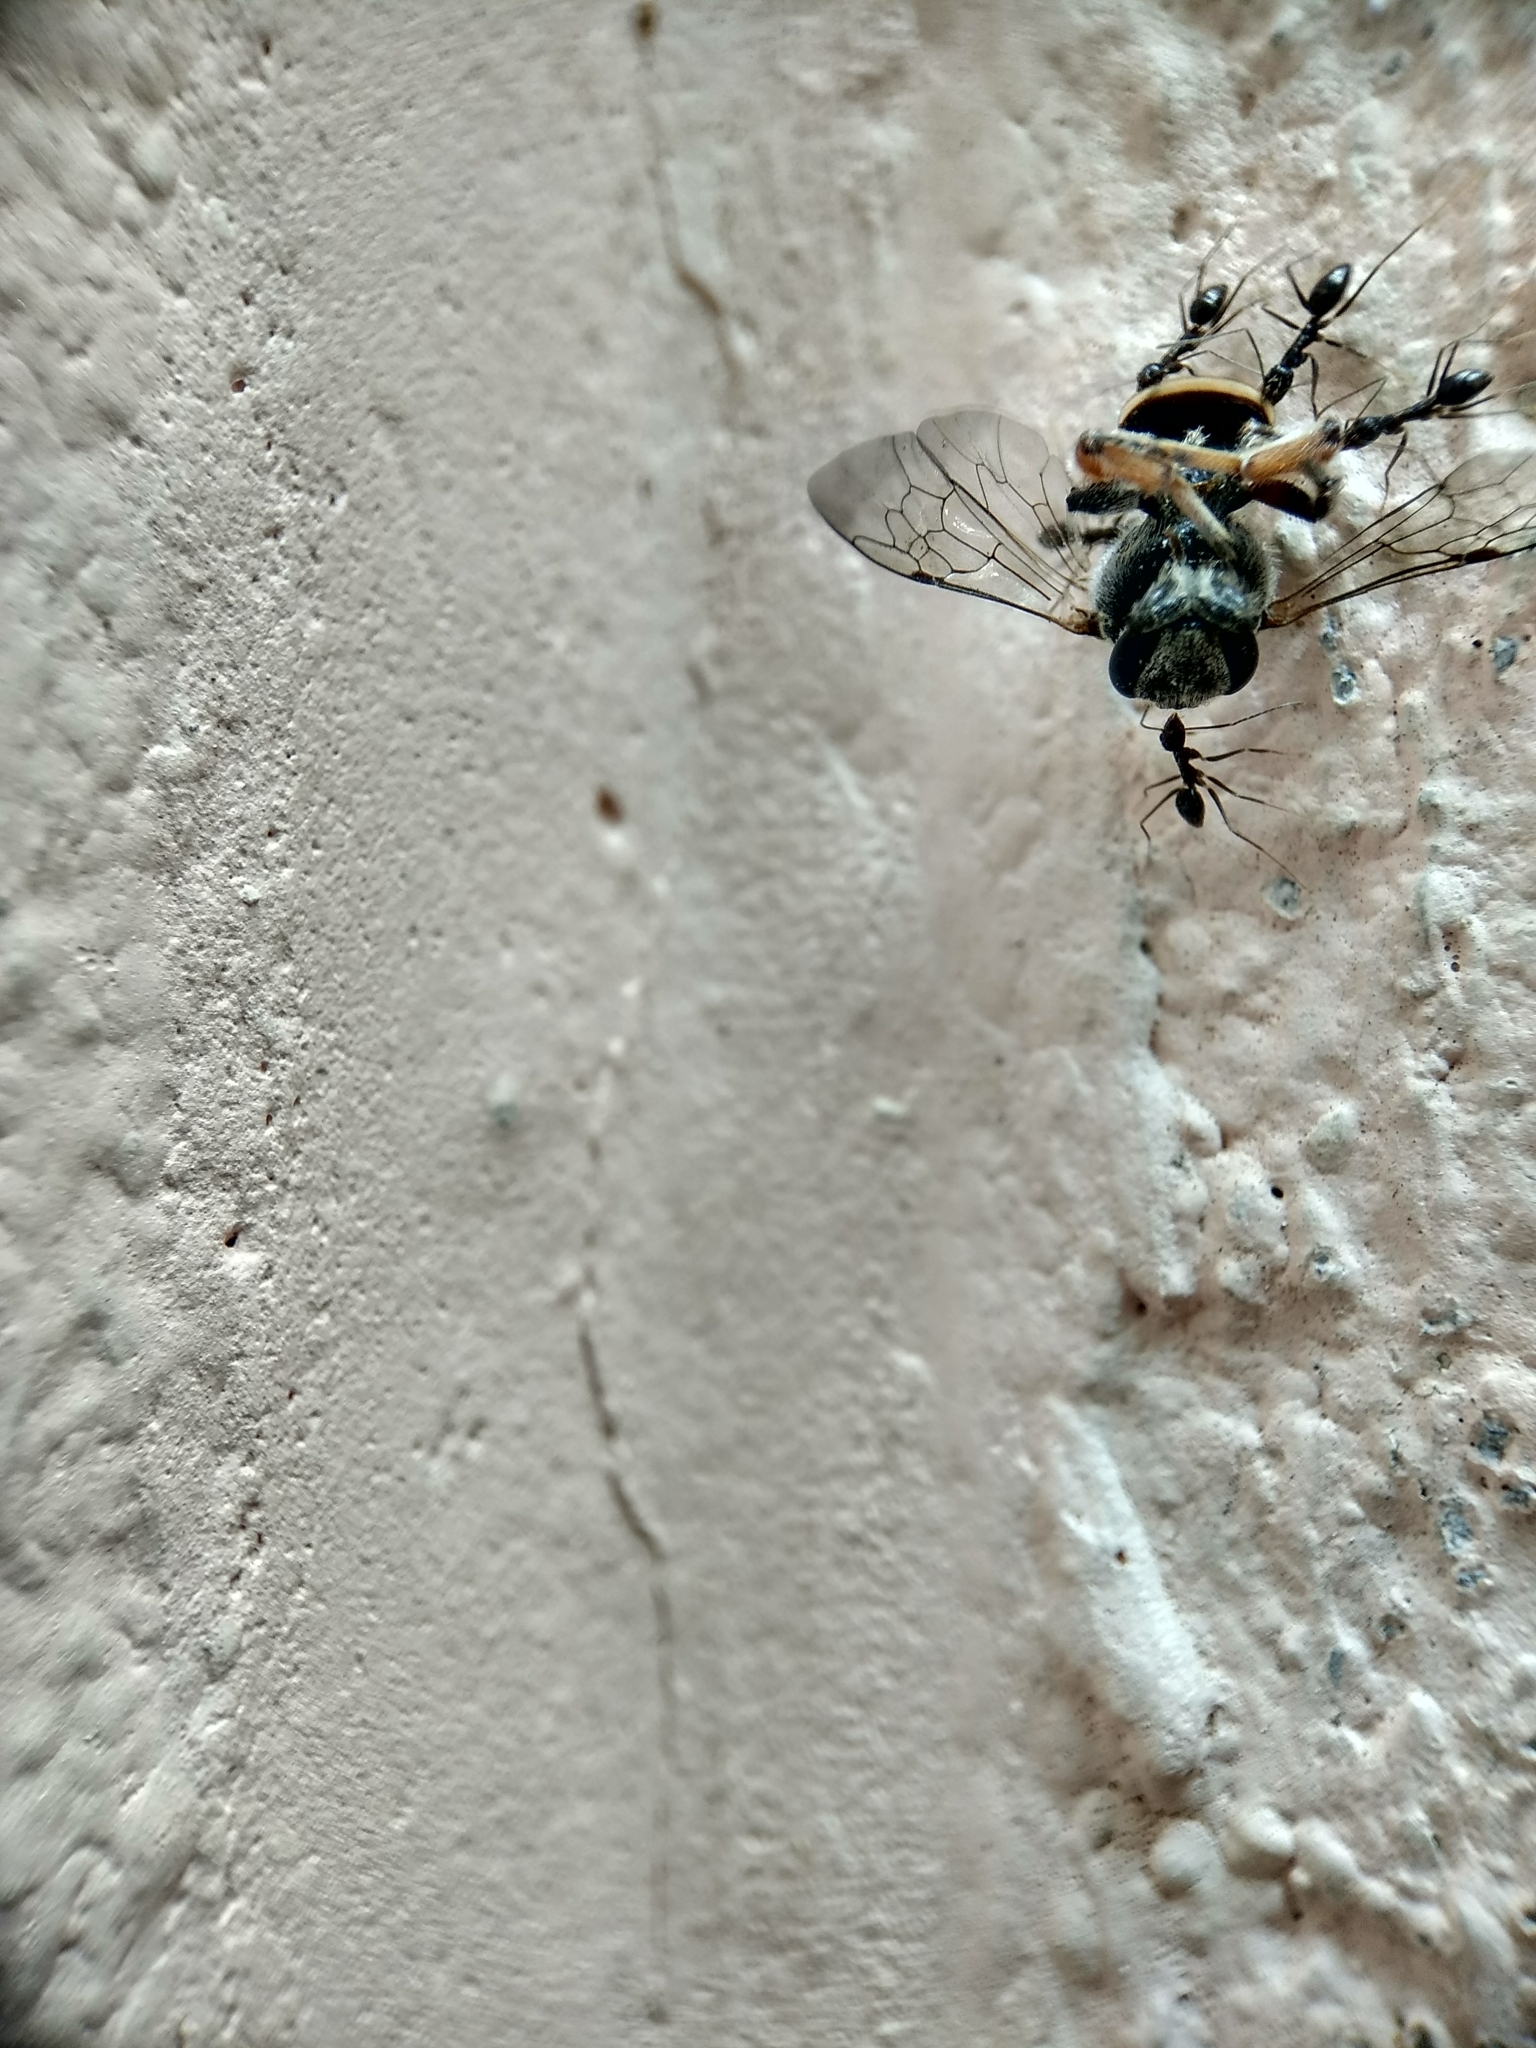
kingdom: Animalia
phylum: Arthropoda
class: Insecta
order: Hymenoptera
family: Formicidae
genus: Paratrechina
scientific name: Paratrechina longicornis
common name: Longhorned crazy ant
